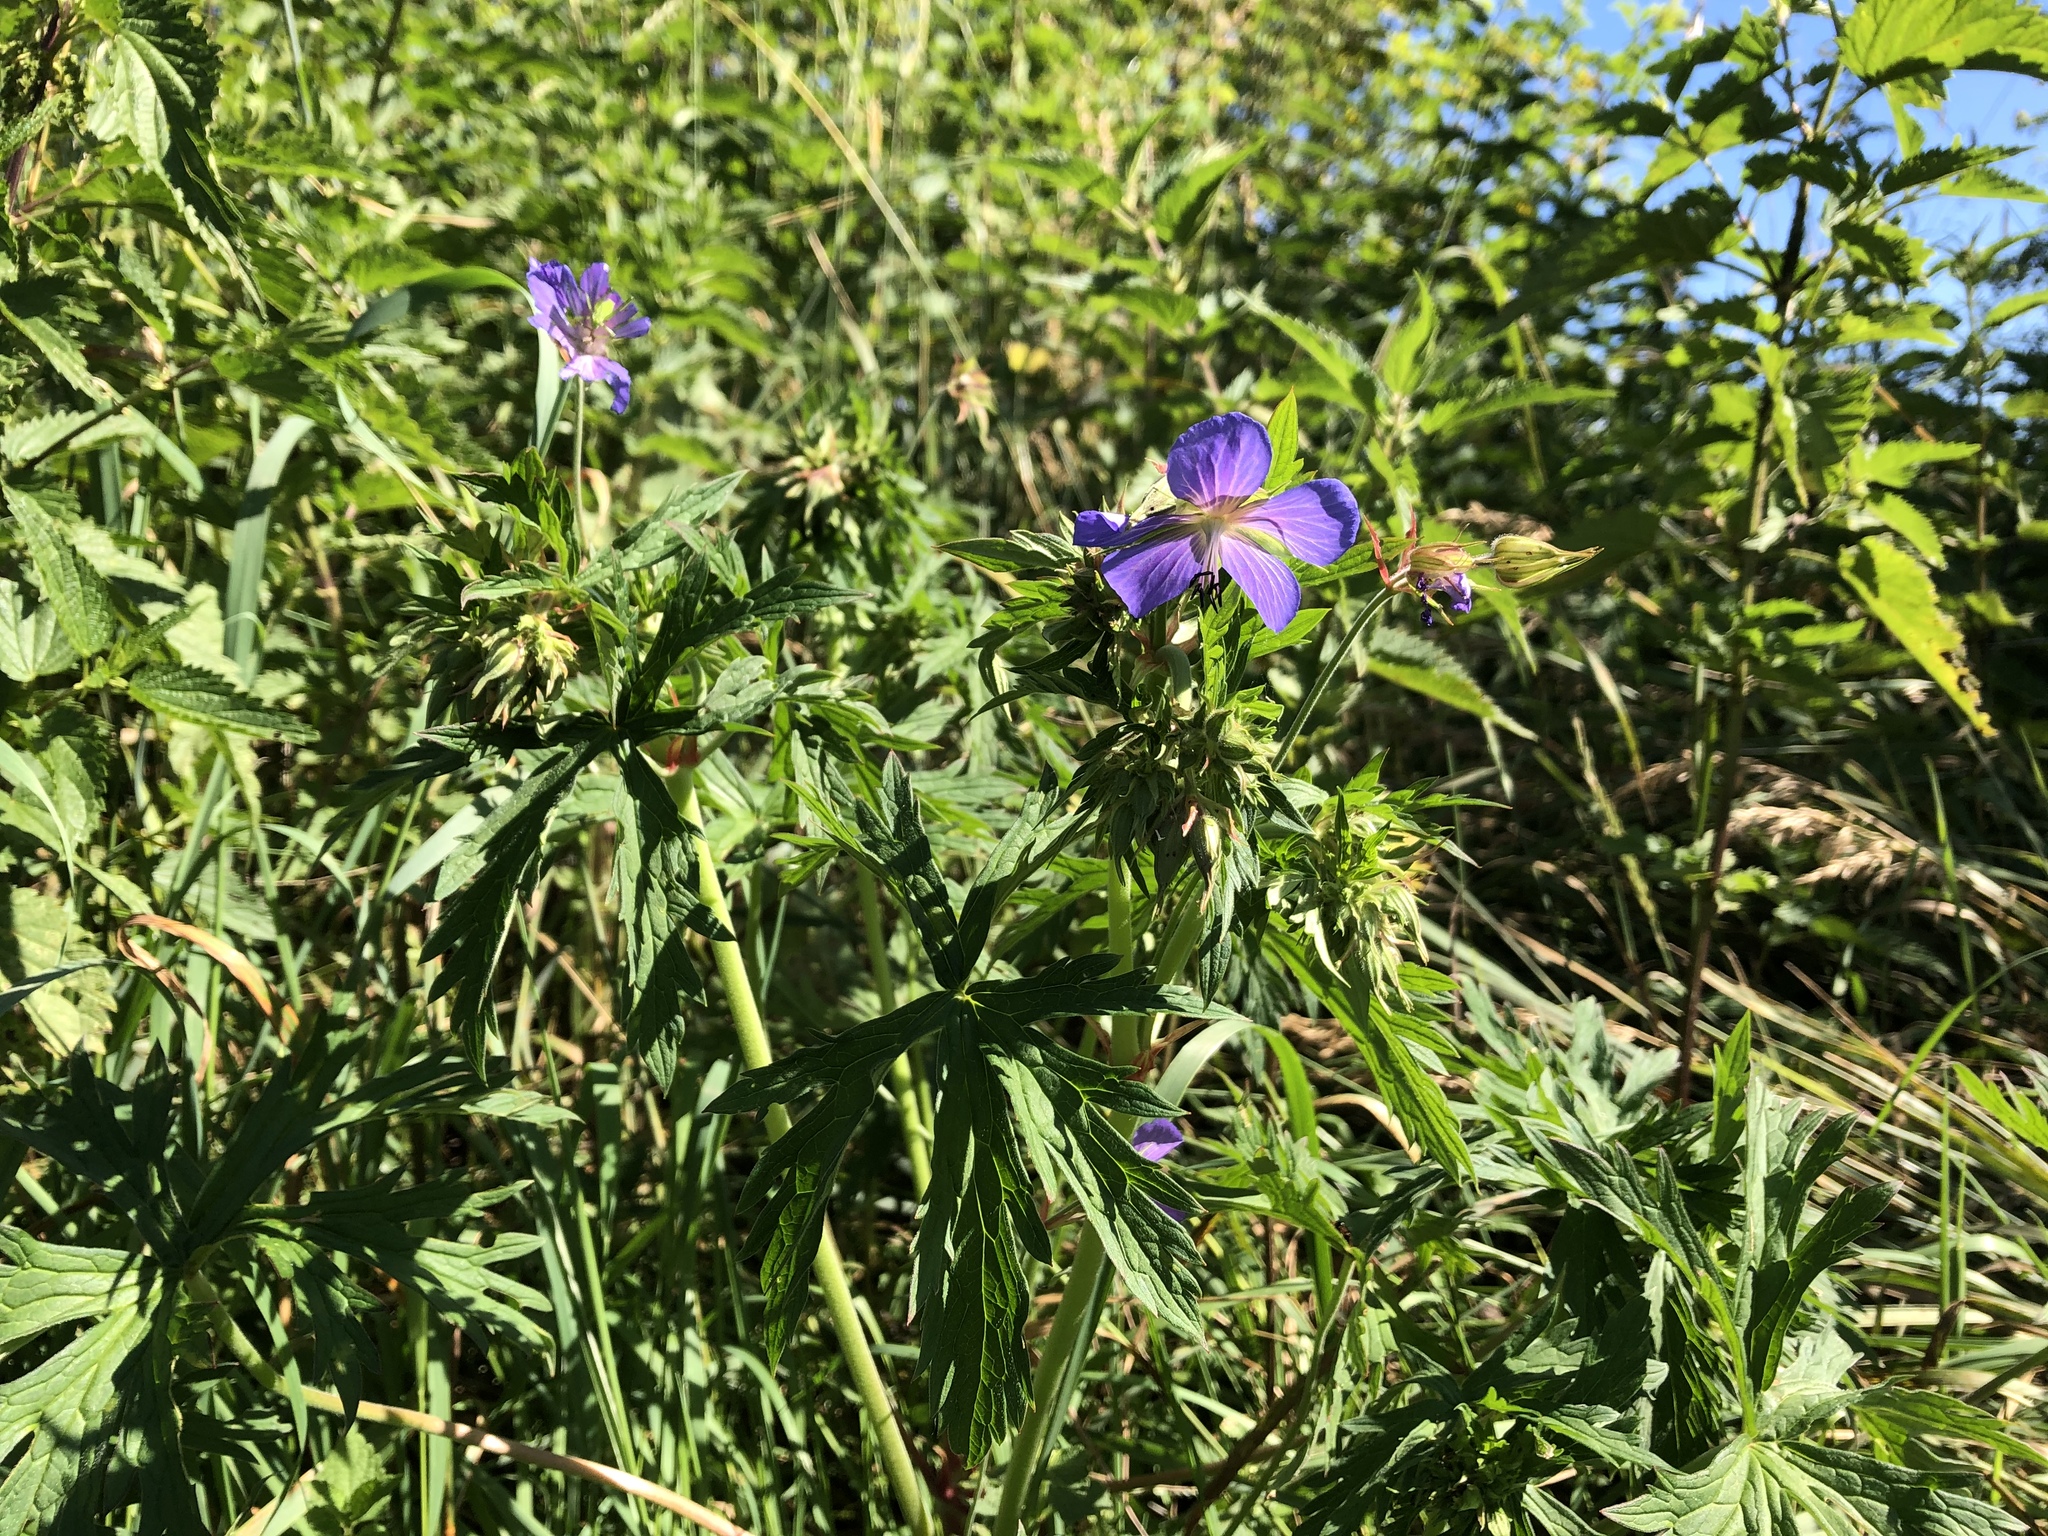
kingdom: Plantae
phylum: Tracheophyta
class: Magnoliopsida
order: Geraniales
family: Geraniaceae
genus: Geranium
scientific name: Geranium pratense
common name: Meadow crane's-bill
